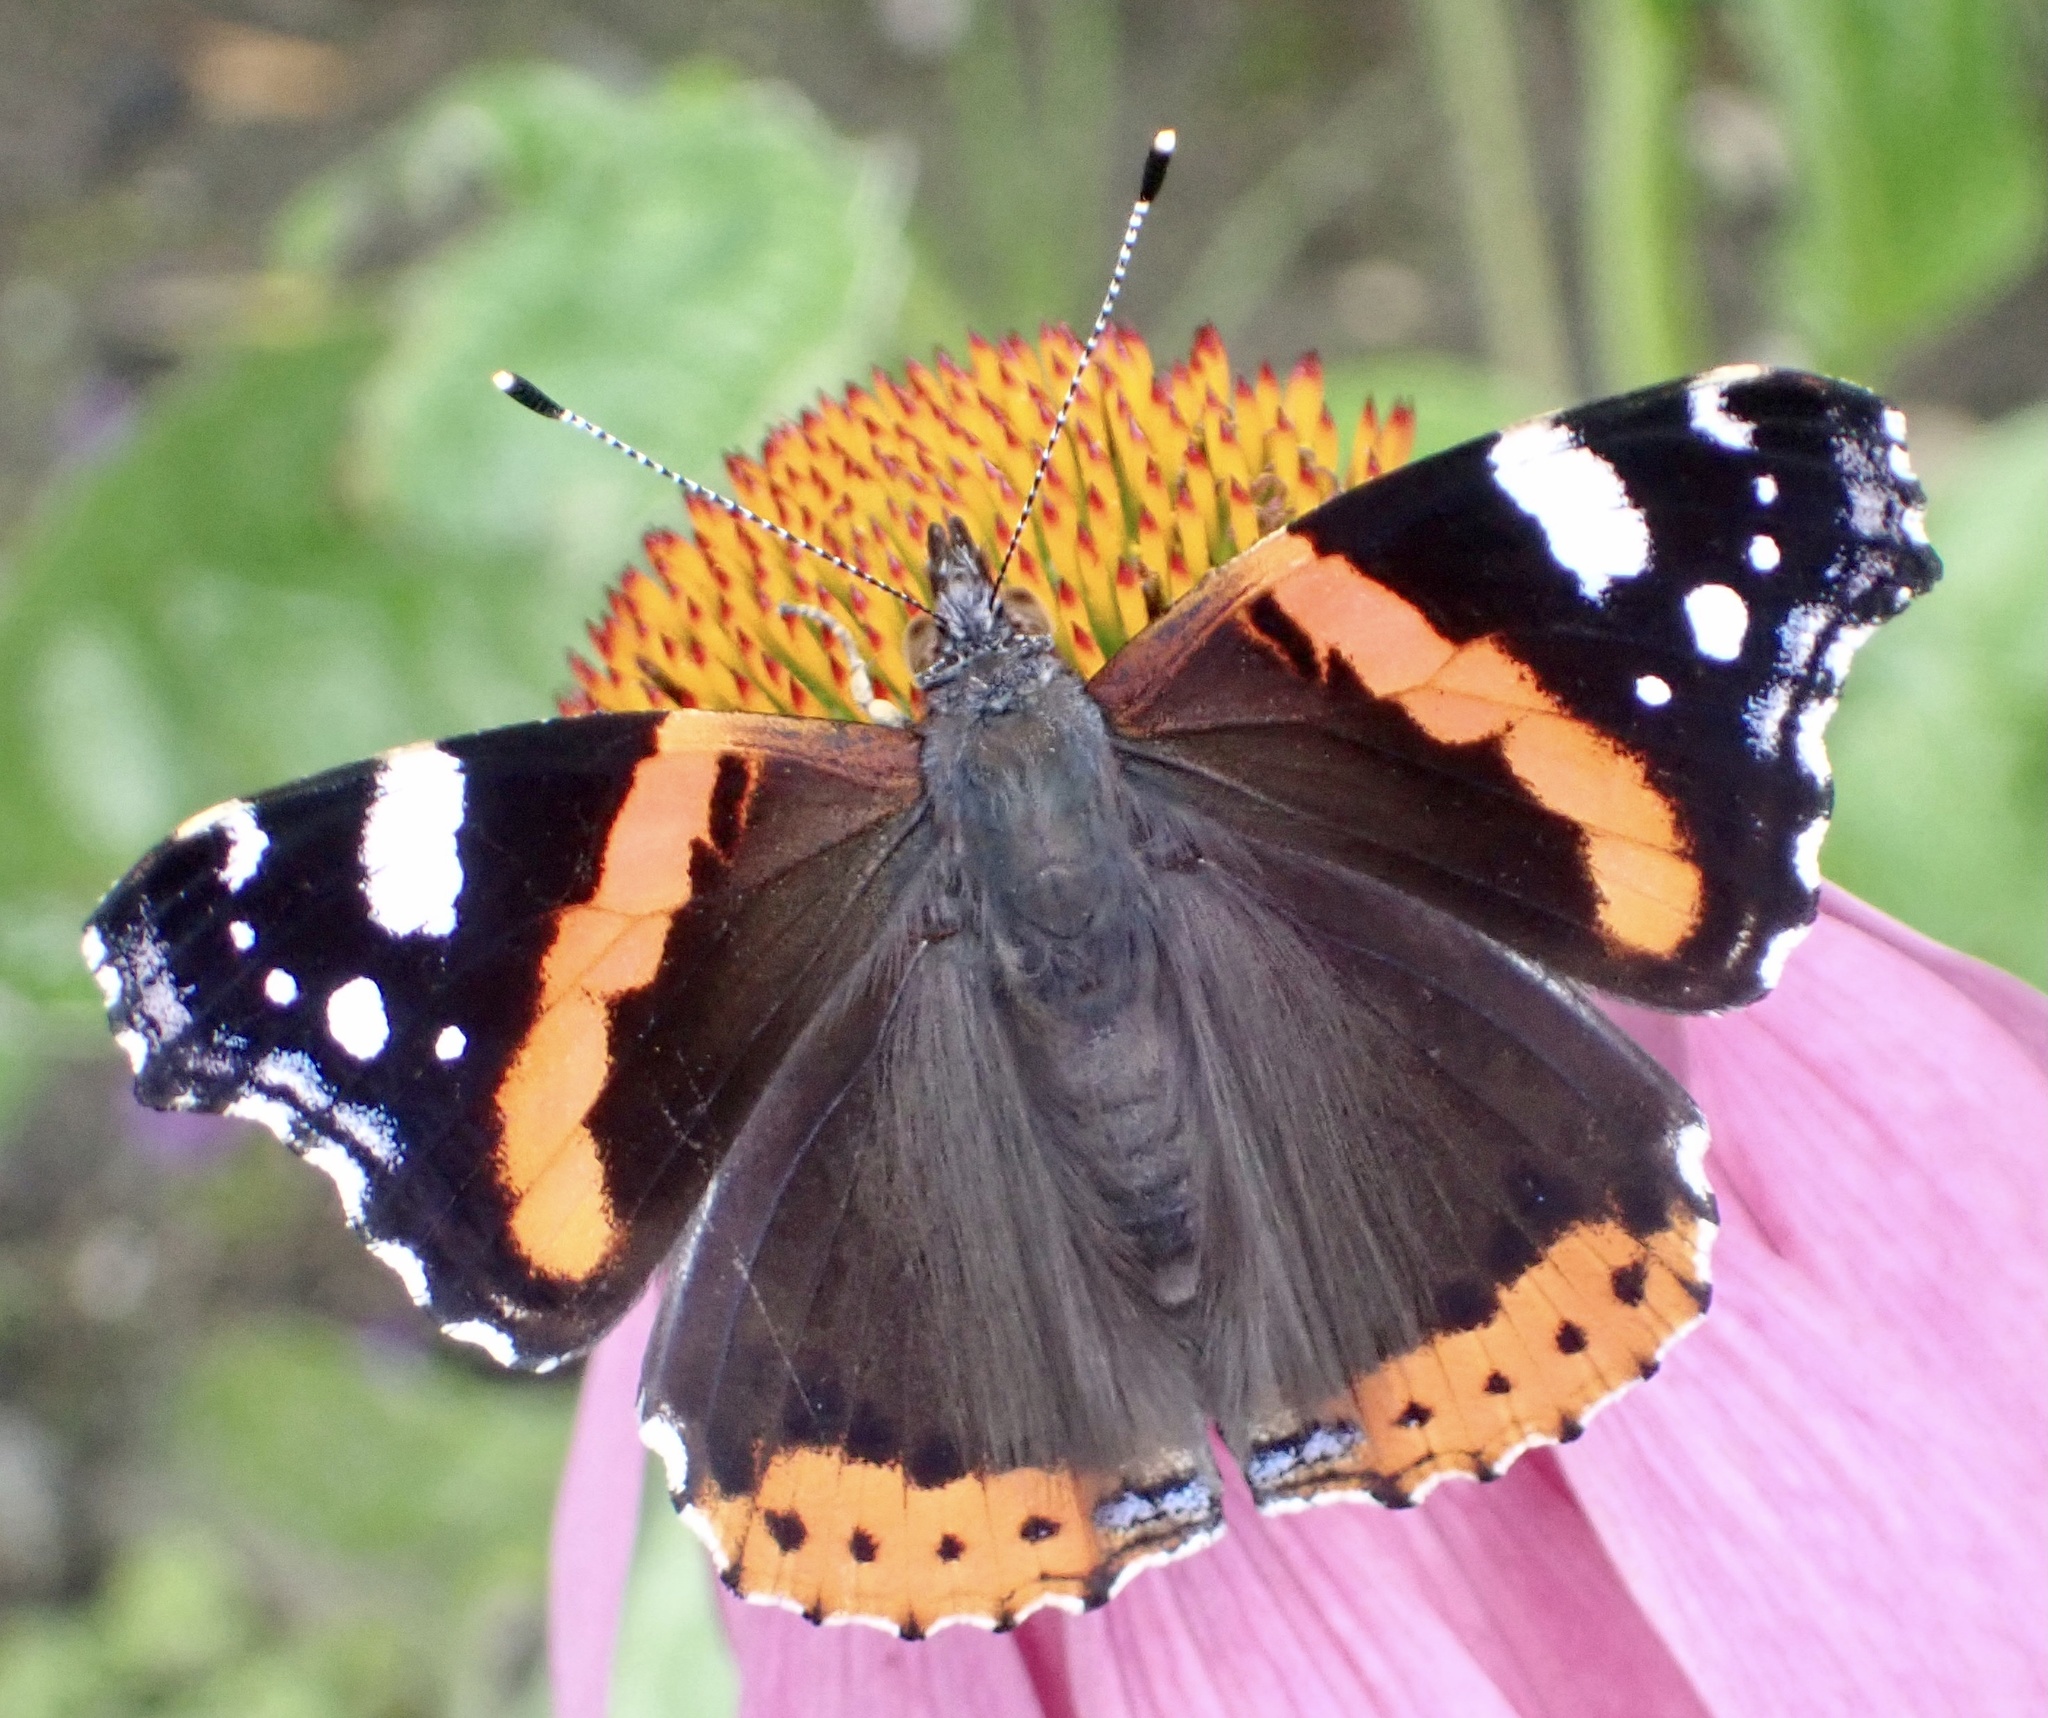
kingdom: Animalia
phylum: Arthropoda
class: Insecta
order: Lepidoptera
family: Nymphalidae
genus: Vanessa
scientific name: Vanessa atalanta
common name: Red admiral
